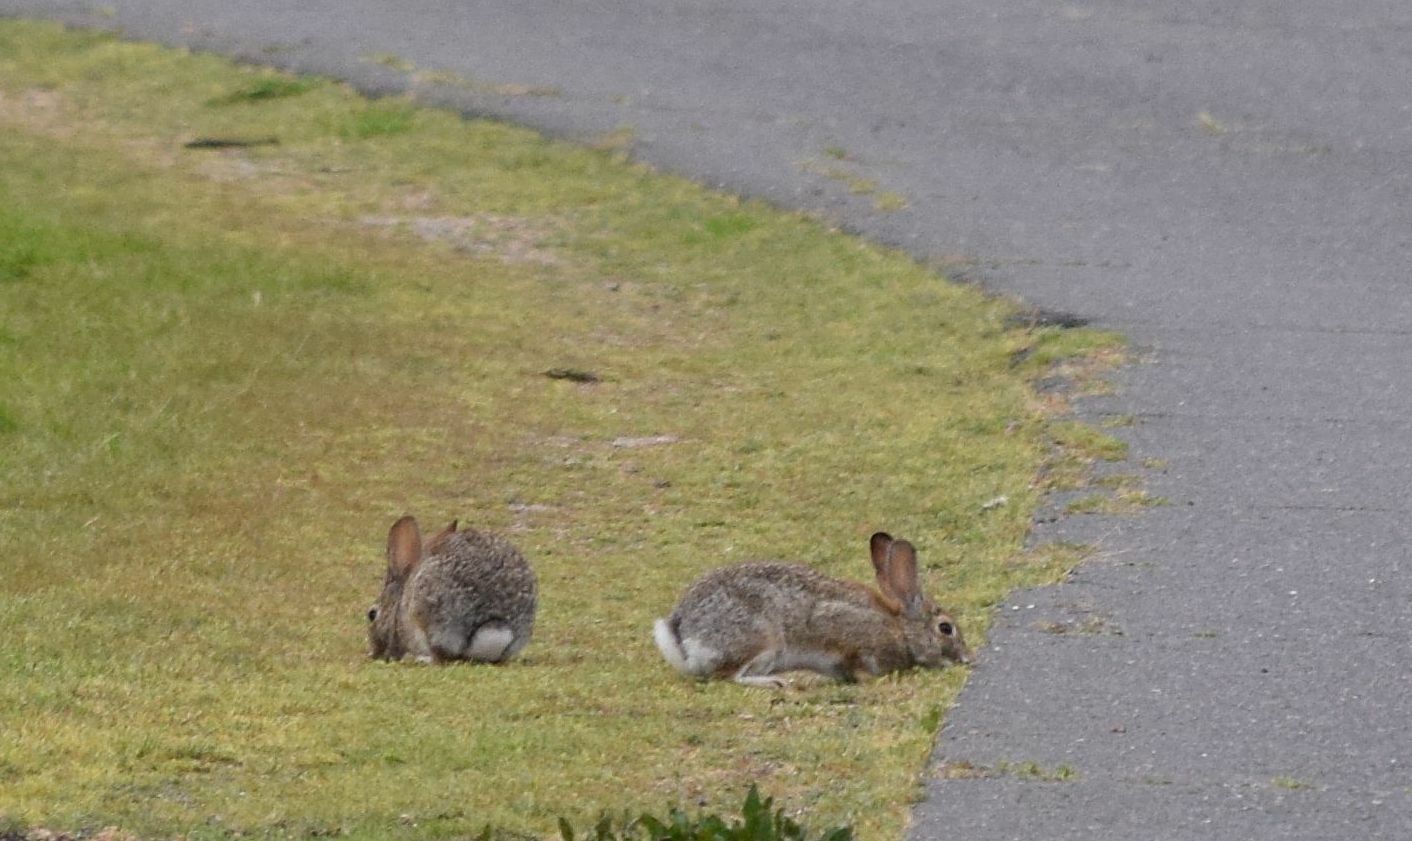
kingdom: Animalia
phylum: Chordata
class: Mammalia
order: Lagomorpha
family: Leporidae
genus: Sylvilagus
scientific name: Sylvilagus audubonii
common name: Desert cottontail
